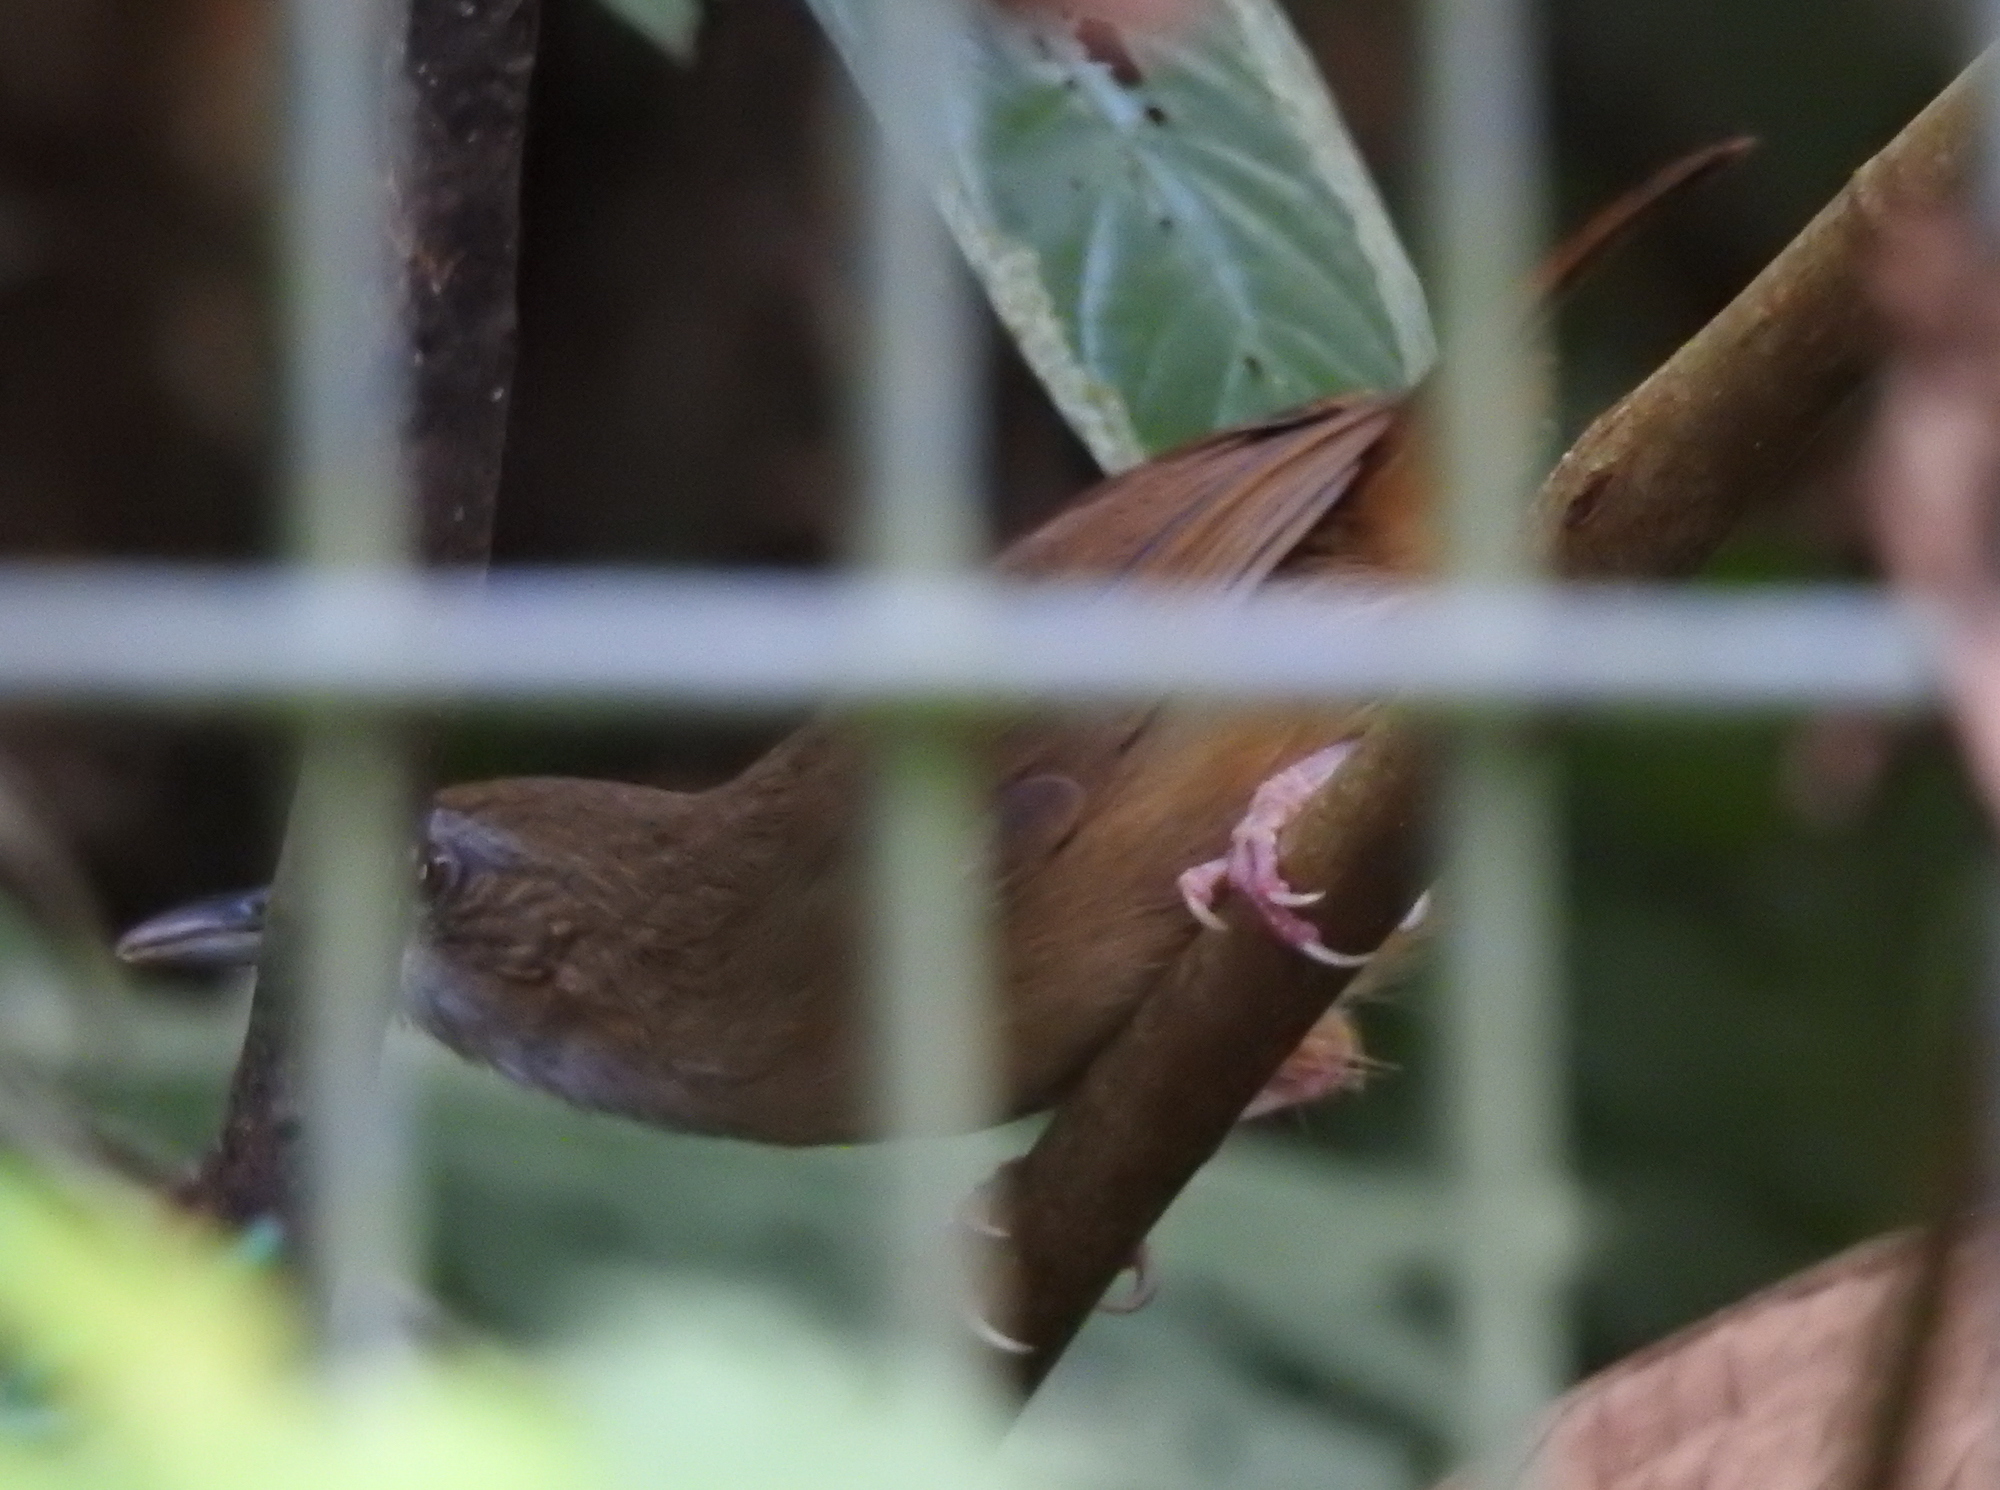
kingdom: Animalia
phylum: Chordata
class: Aves
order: Passeriformes
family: Pellorneidae
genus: Malacocincla
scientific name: Malacocincla abbotti
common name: Abbott's babbler
